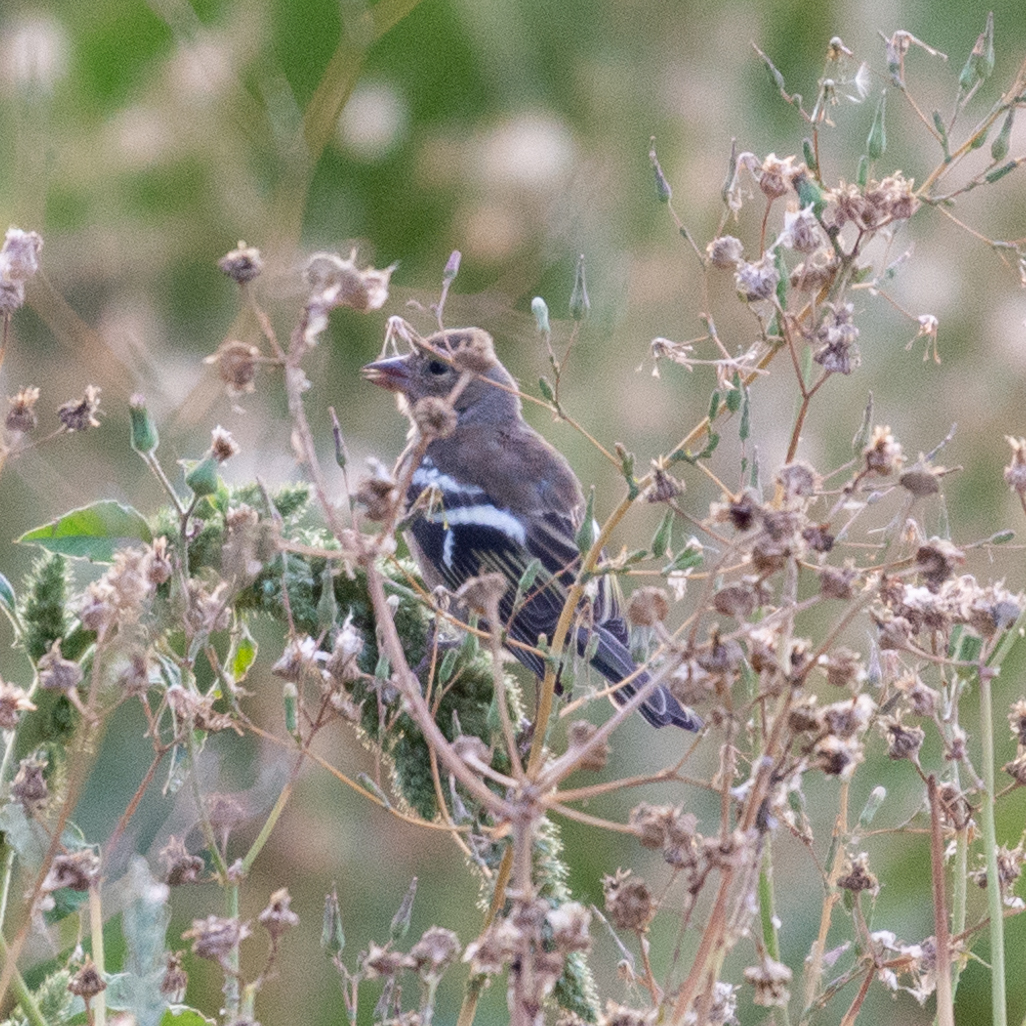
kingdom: Animalia
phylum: Chordata
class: Aves
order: Passeriformes
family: Fringillidae
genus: Fringilla
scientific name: Fringilla coelebs
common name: Common chaffinch
